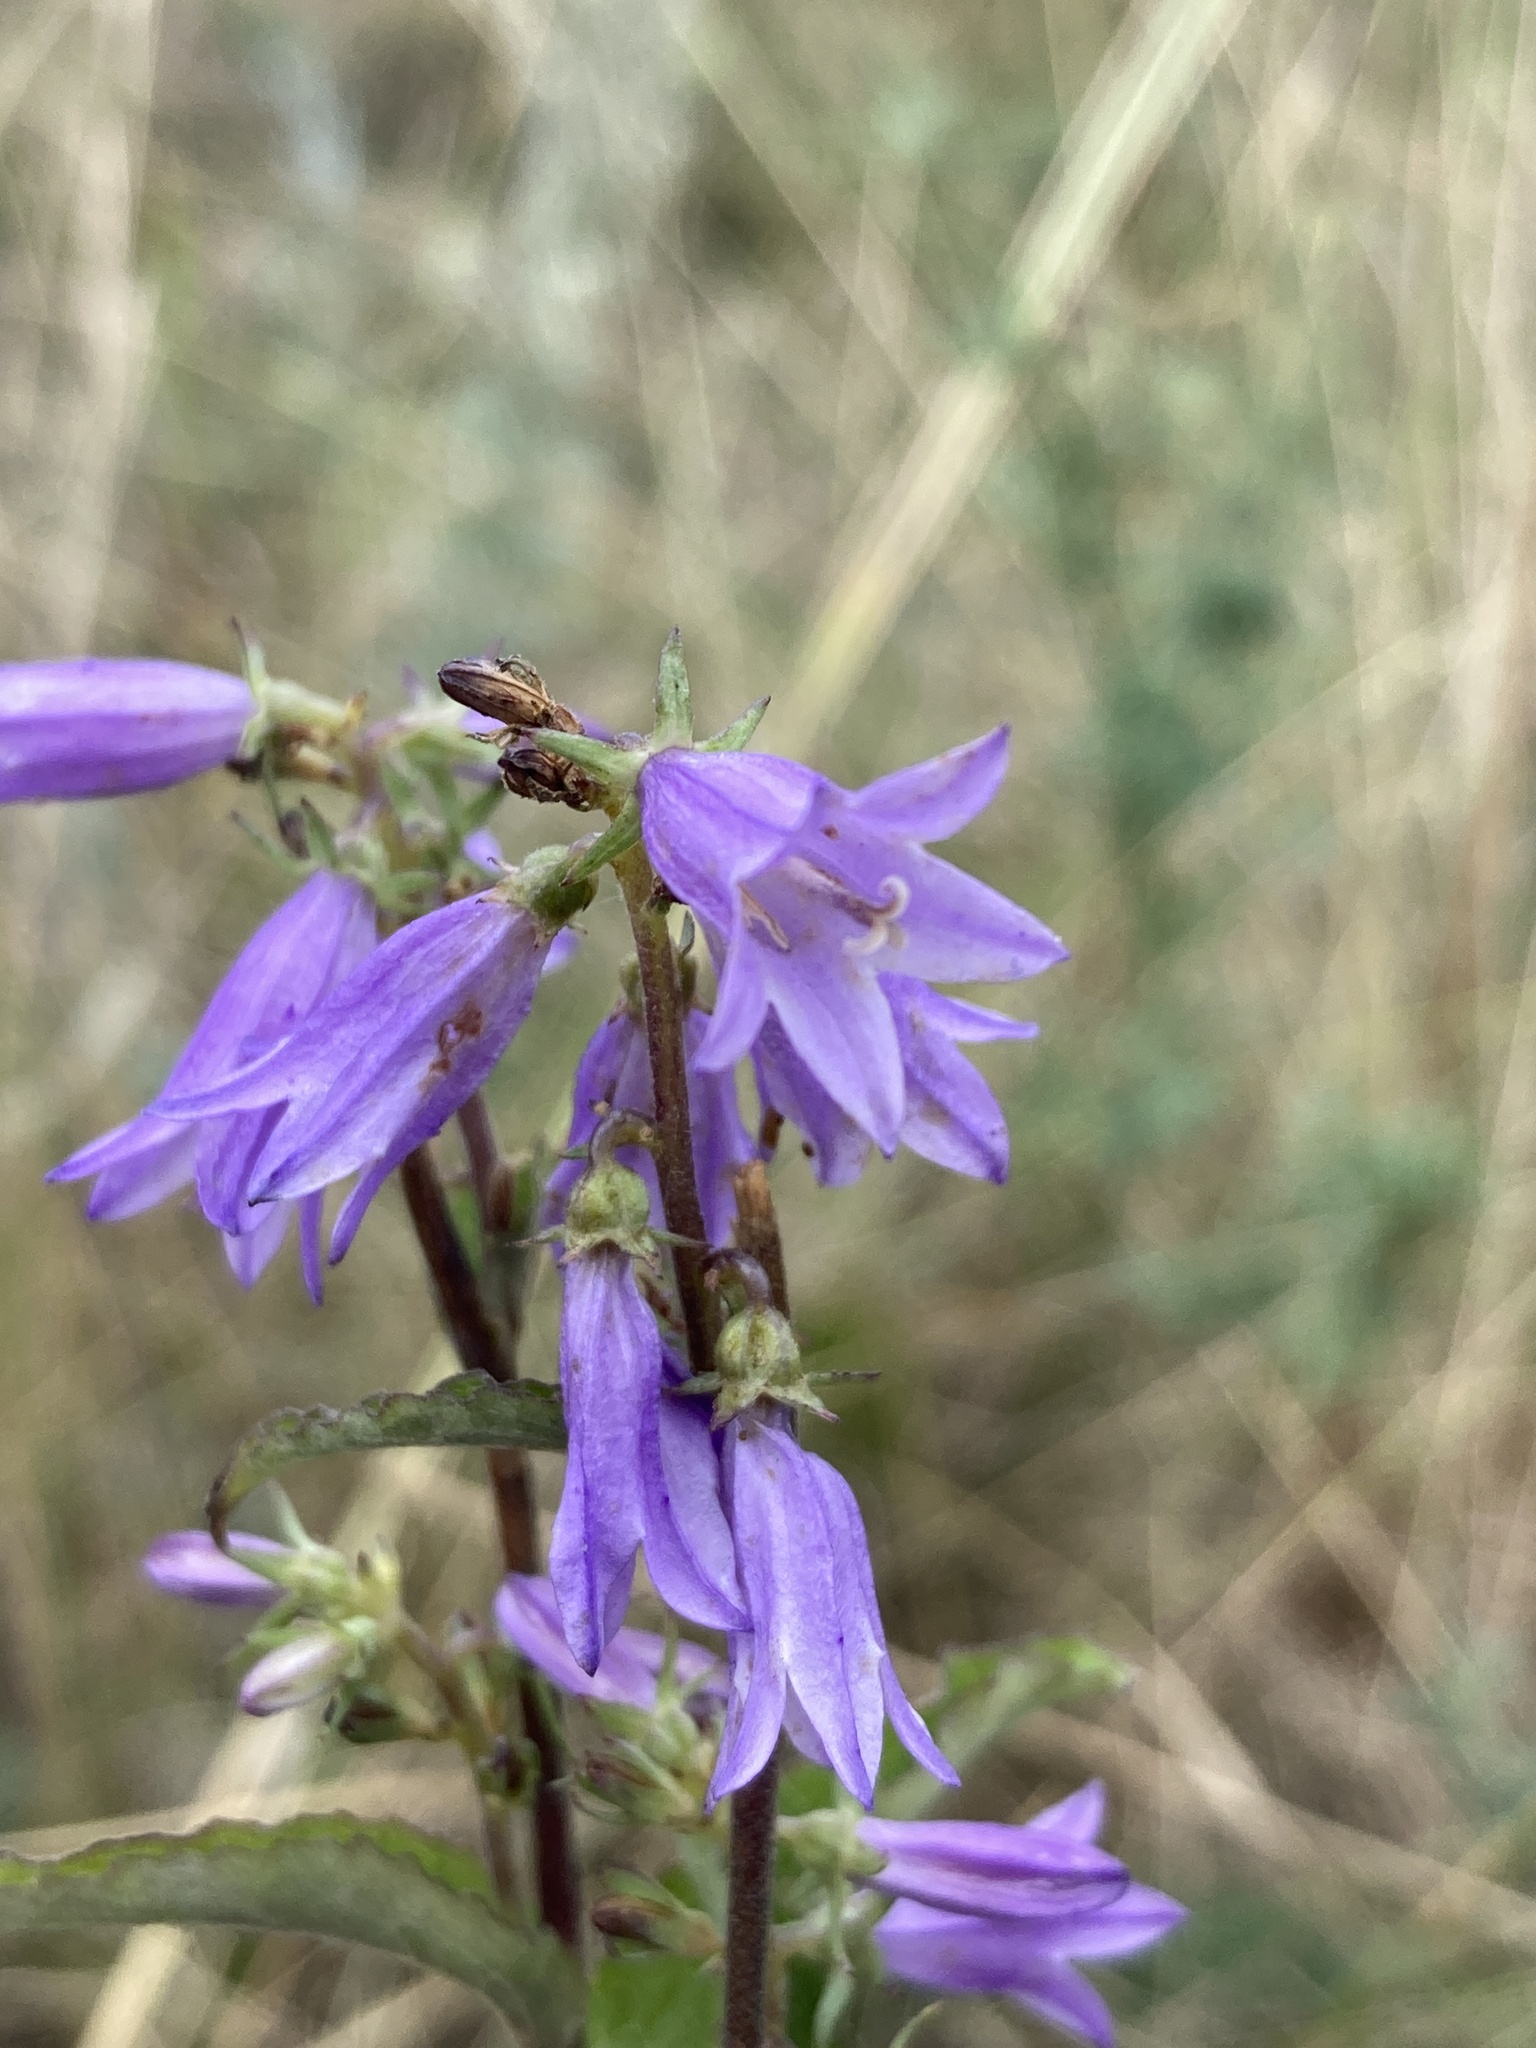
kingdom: Plantae
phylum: Tracheophyta
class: Magnoliopsida
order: Asterales
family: Campanulaceae
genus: Campanula
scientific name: Campanula rapunculoides
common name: Creeping bellflower
